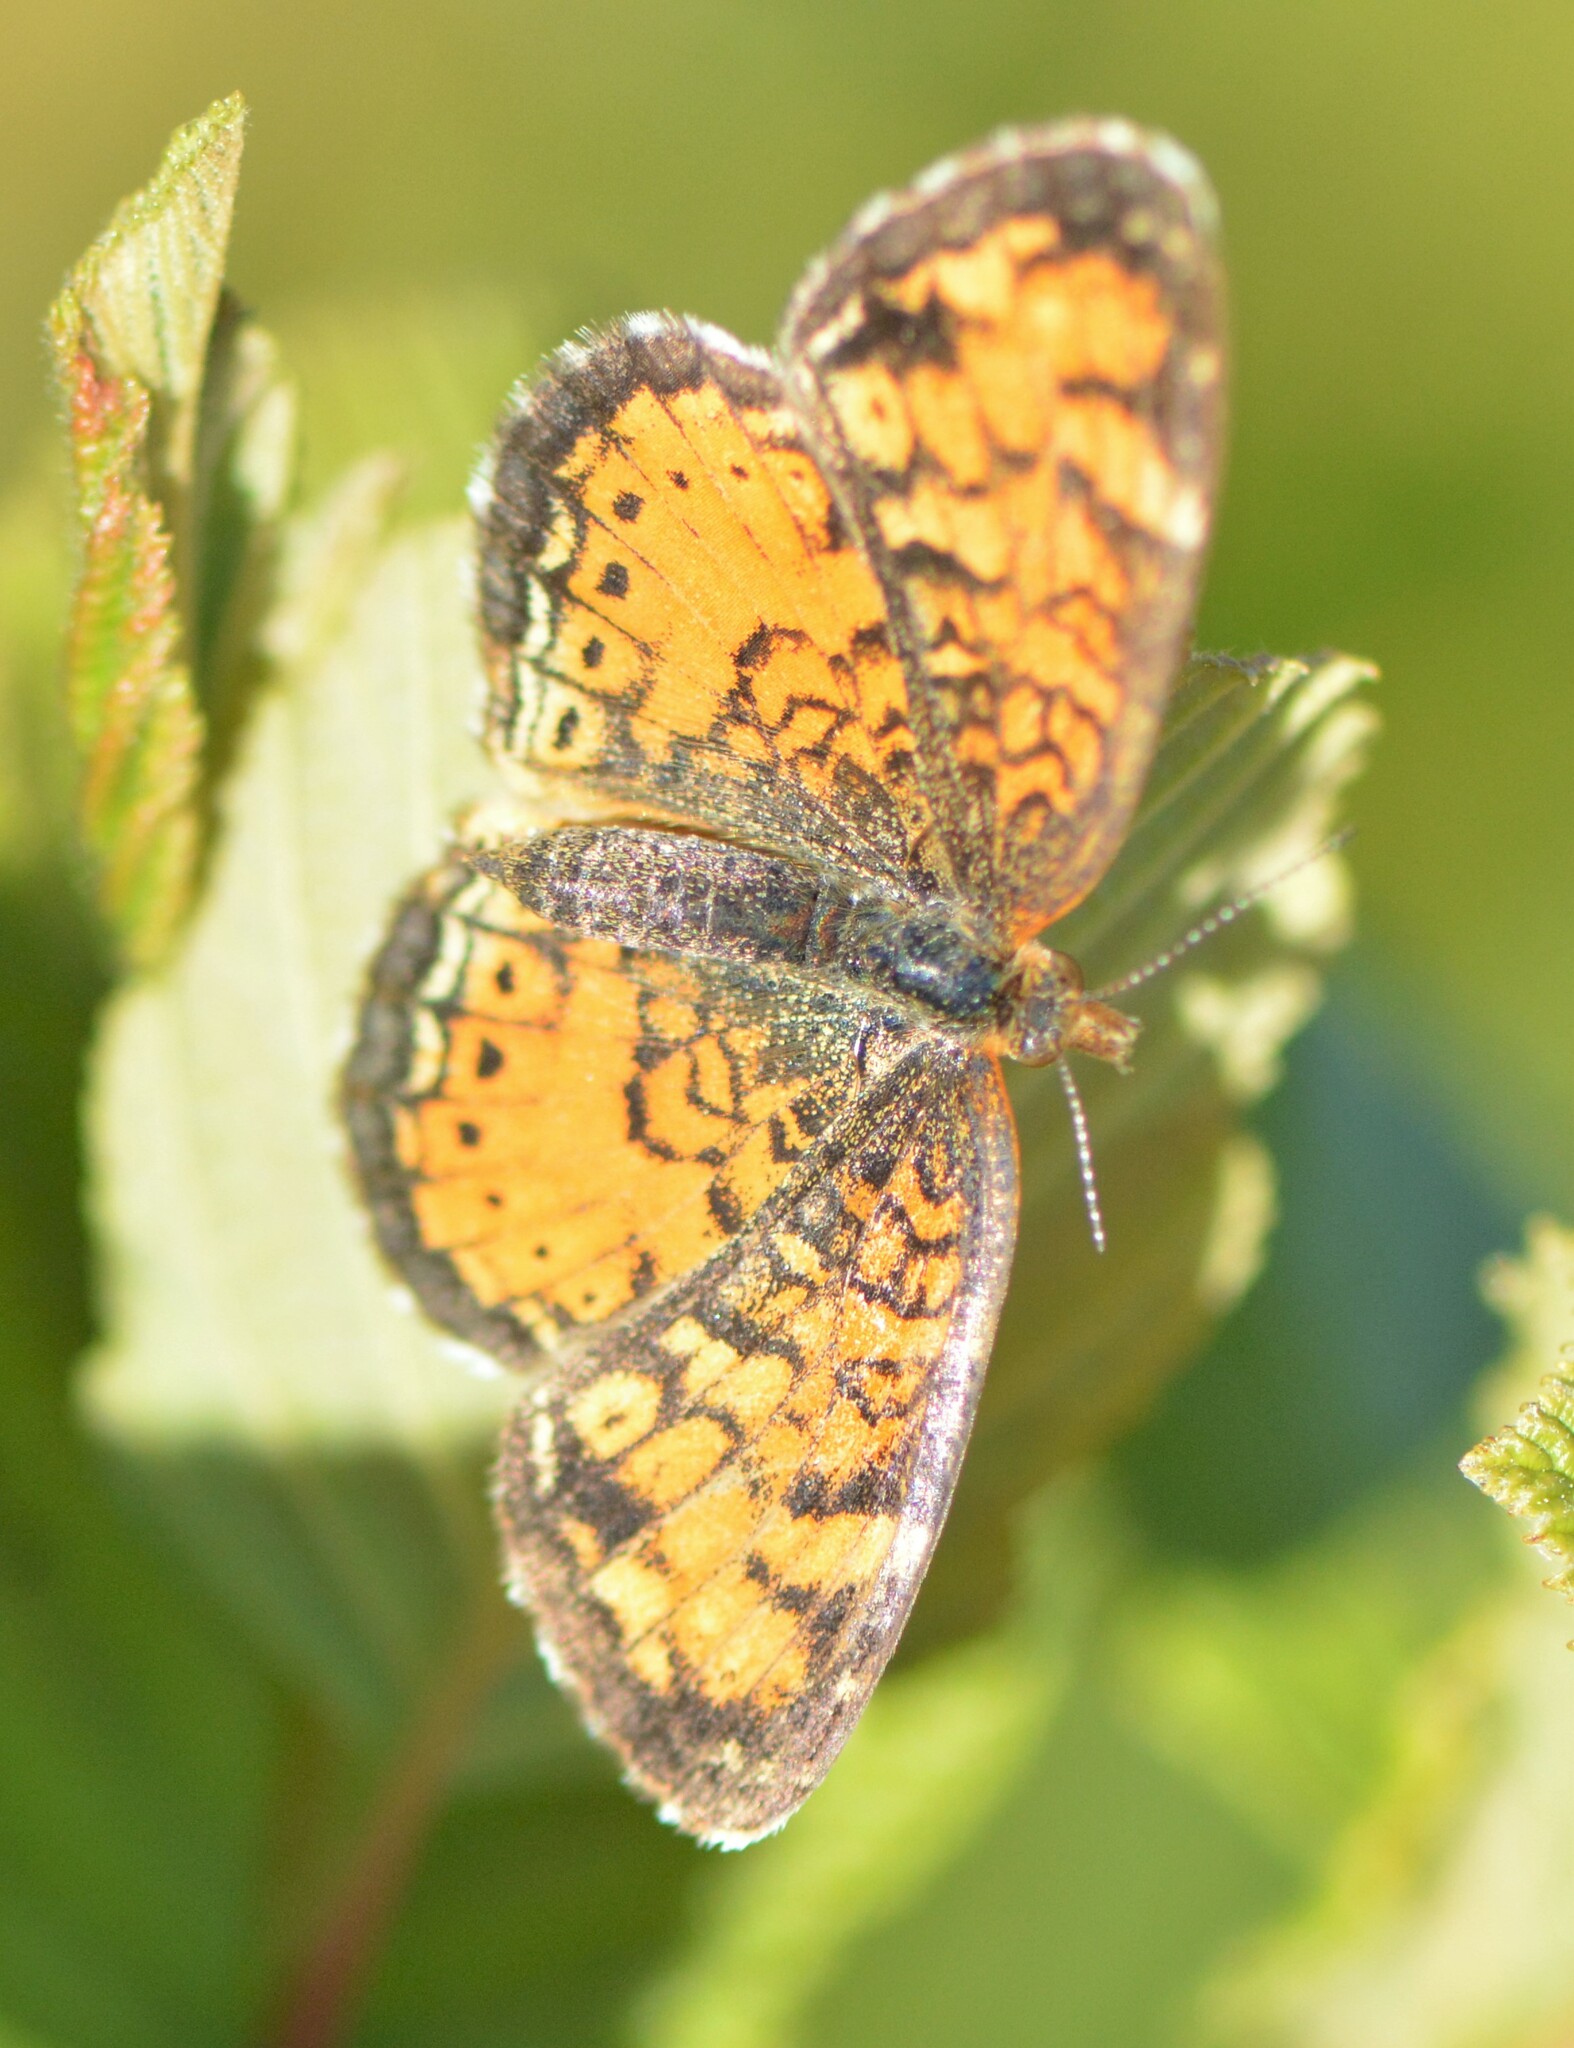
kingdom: Animalia
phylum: Arthropoda
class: Insecta
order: Lepidoptera
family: Nymphalidae
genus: Phyciodes
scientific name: Phyciodes tharos
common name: Pearl crescent
